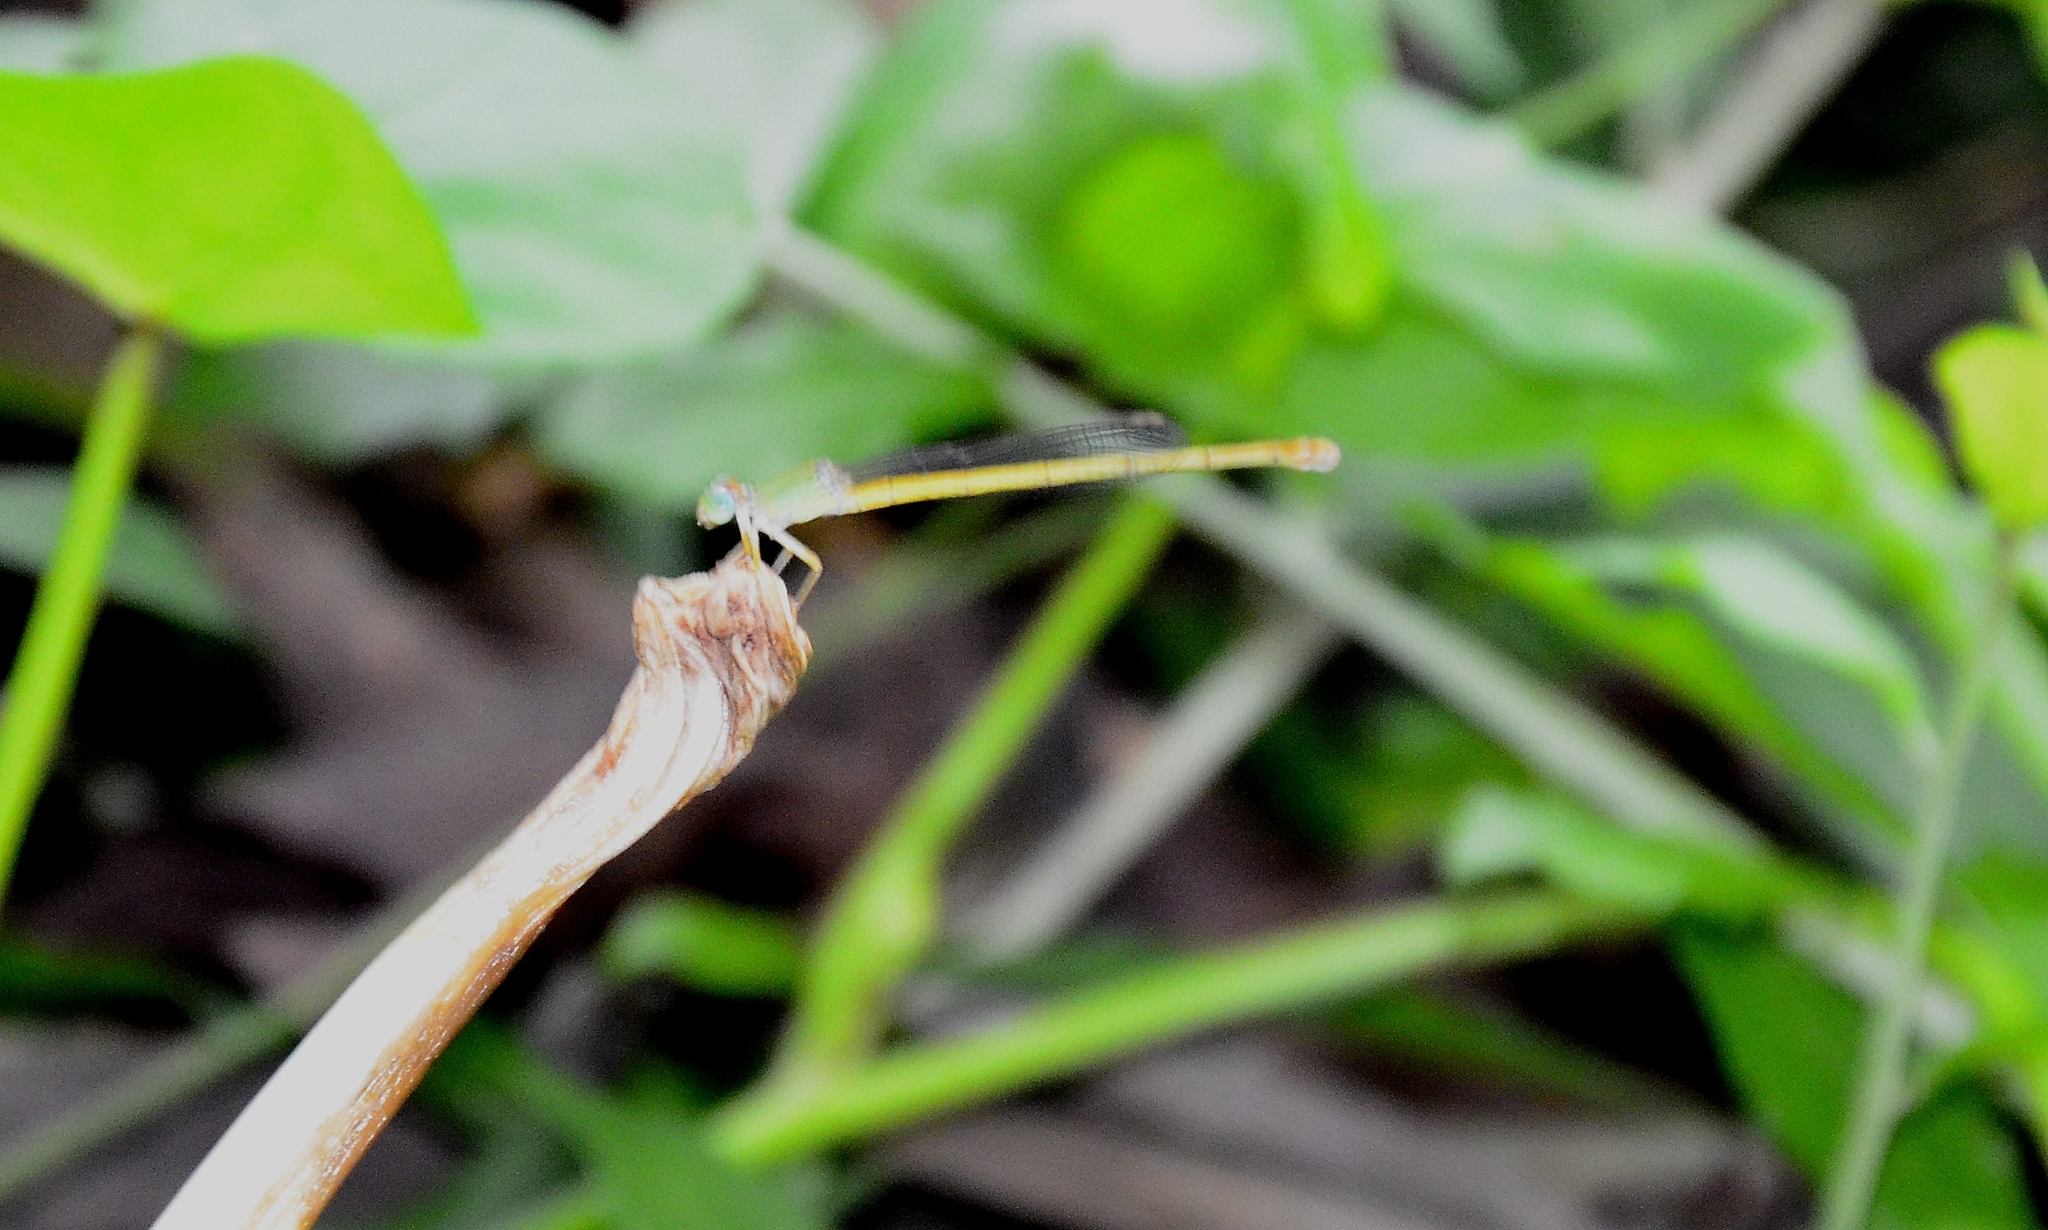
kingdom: Animalia
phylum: Arthropoda
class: Insecta
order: Odonata
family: Coenagrionidae
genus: Ceriagrion
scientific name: Ceriagrion coromandelianum
